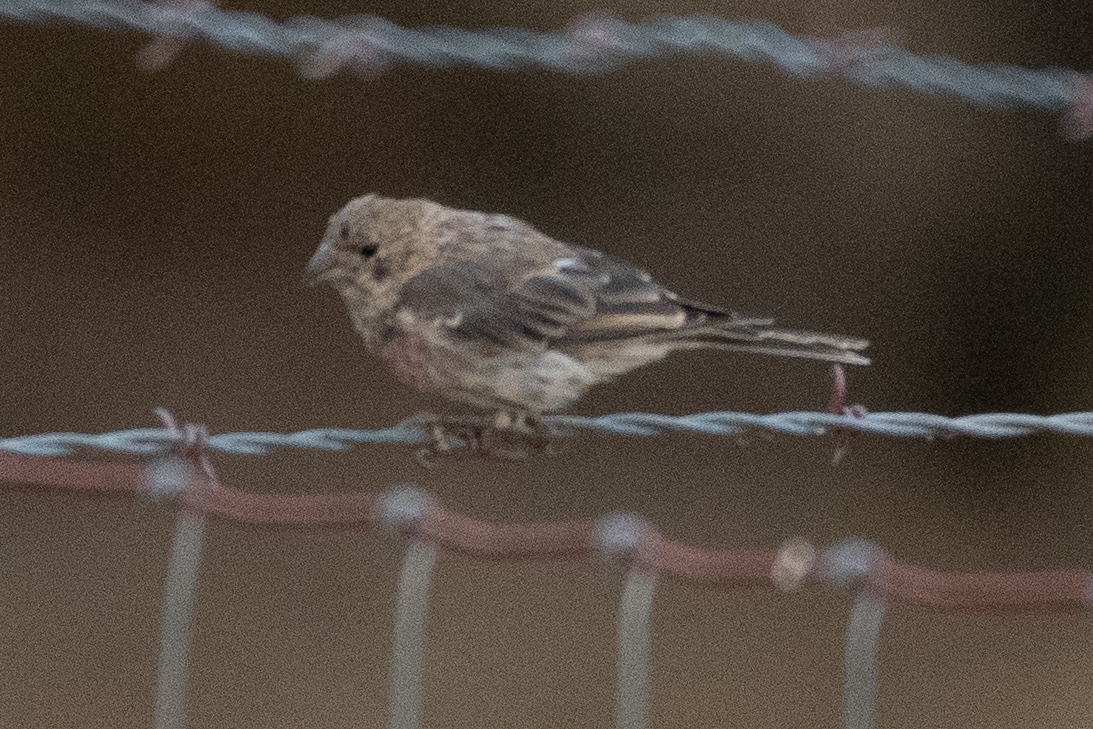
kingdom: Animalia
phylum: Chordata
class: Aves
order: Passeriformes
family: Fringillidae
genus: Haemorhous
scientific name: Haemorhous mexicanus
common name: House finch
